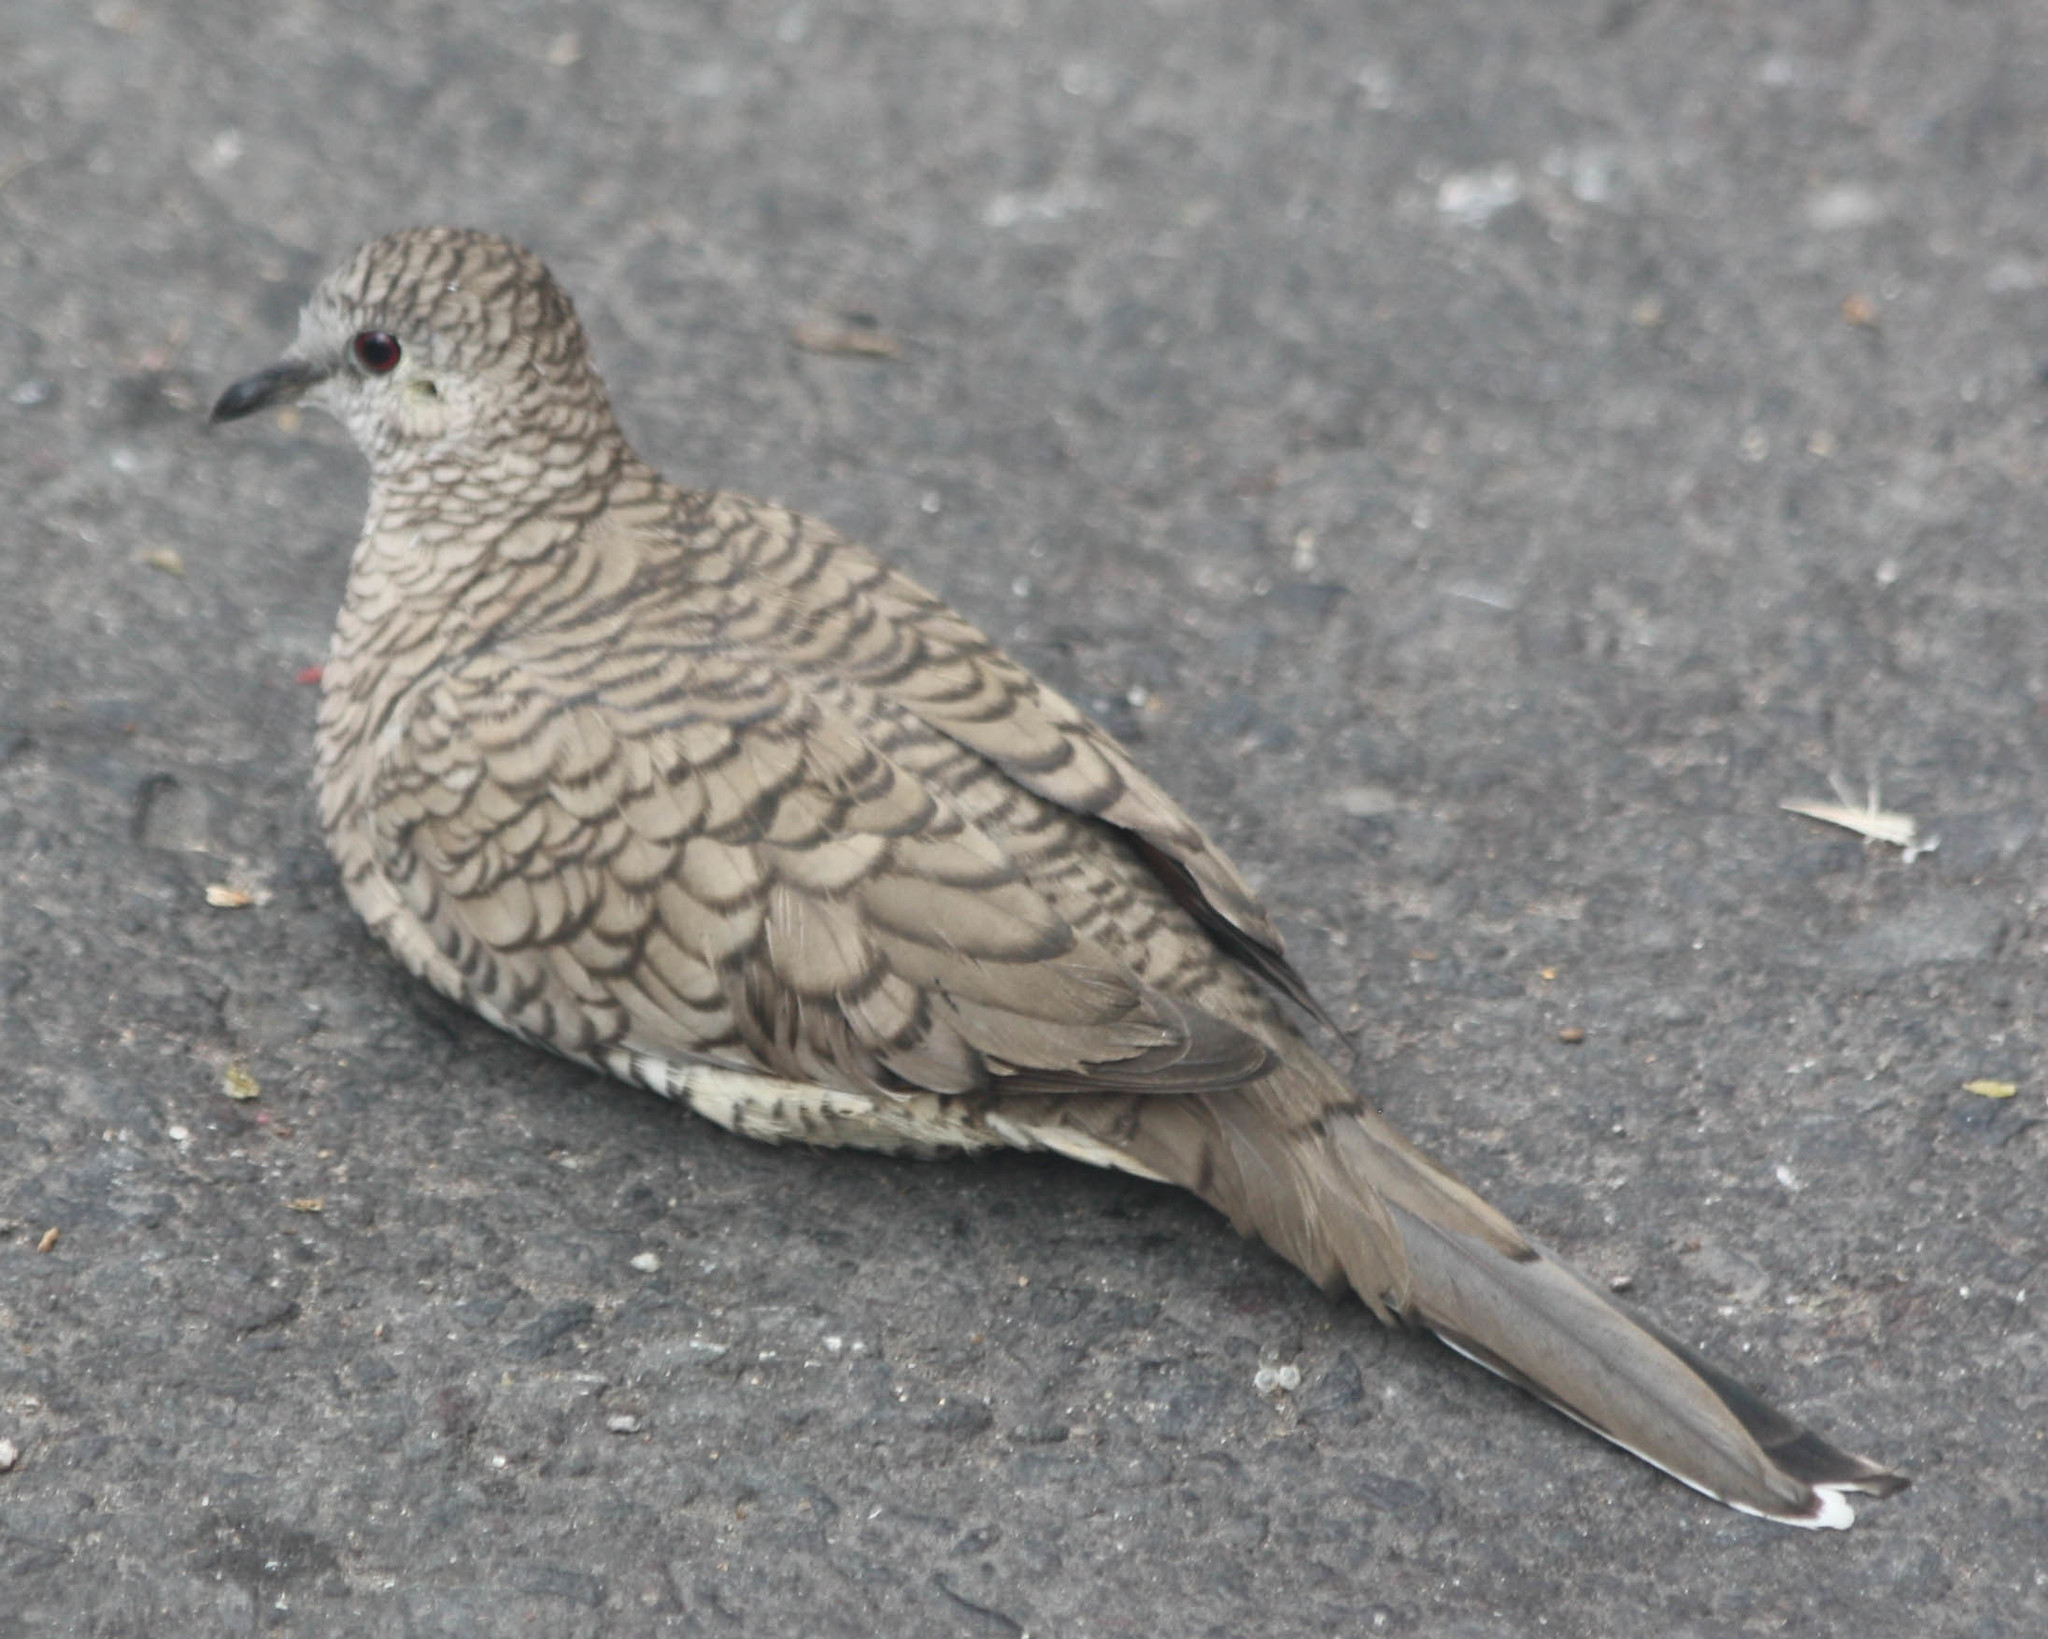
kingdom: Animalia
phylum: Chordata
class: Aves
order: Columbiformes
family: Columbidae
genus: Columbina
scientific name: Columbina inca
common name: Inca dove
